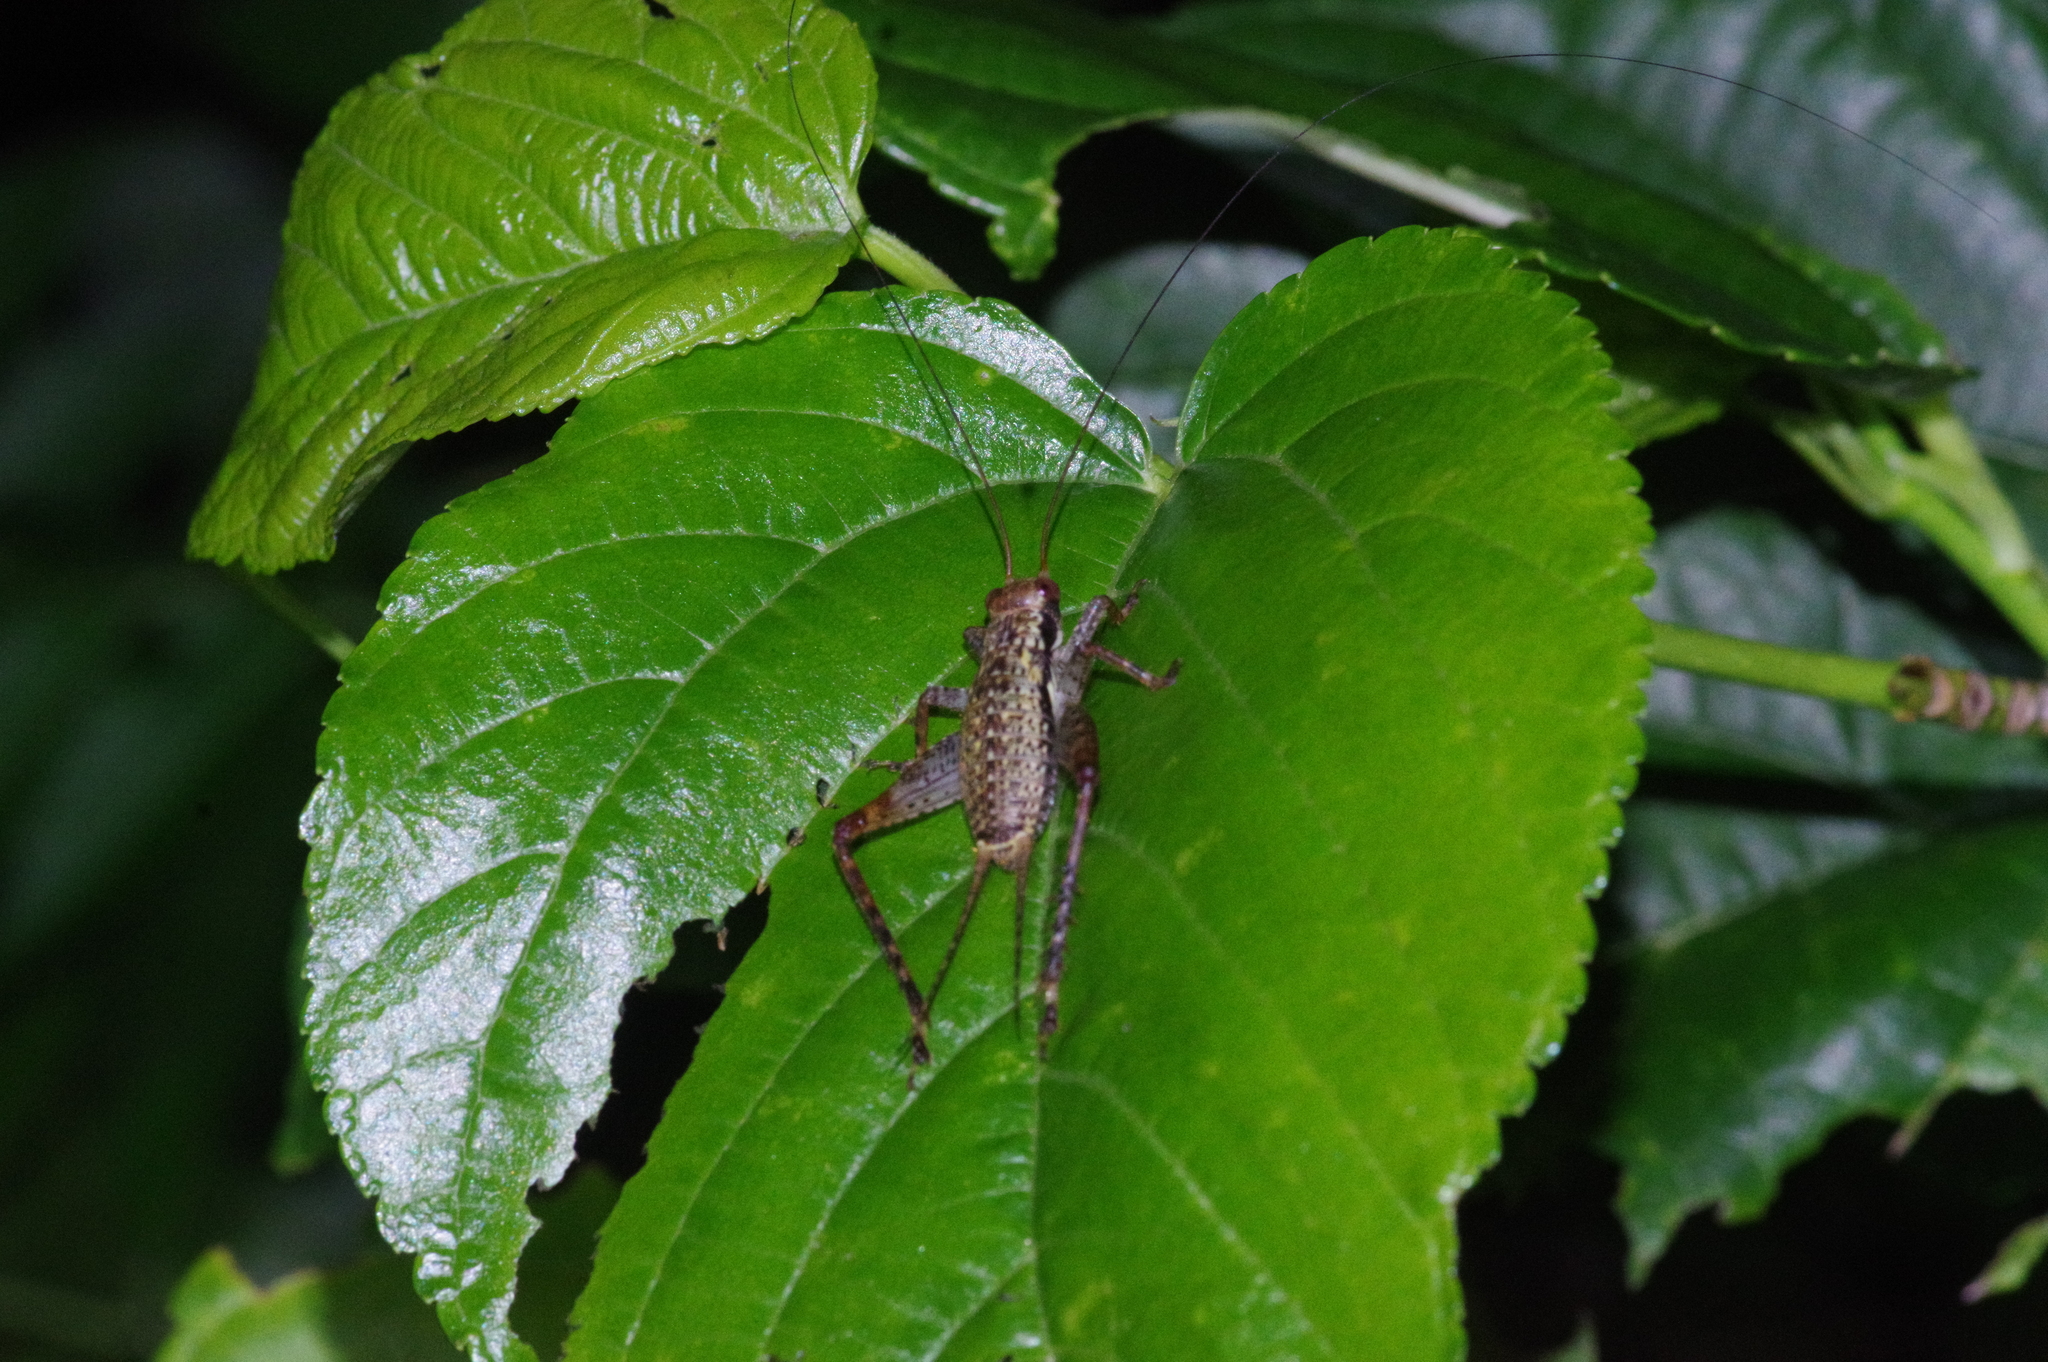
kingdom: Animalia
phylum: Arthropoda
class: Insecta
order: Orthoptera
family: Gryllidae
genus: Cardiodactylus
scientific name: Cardiodactylus guttulus
